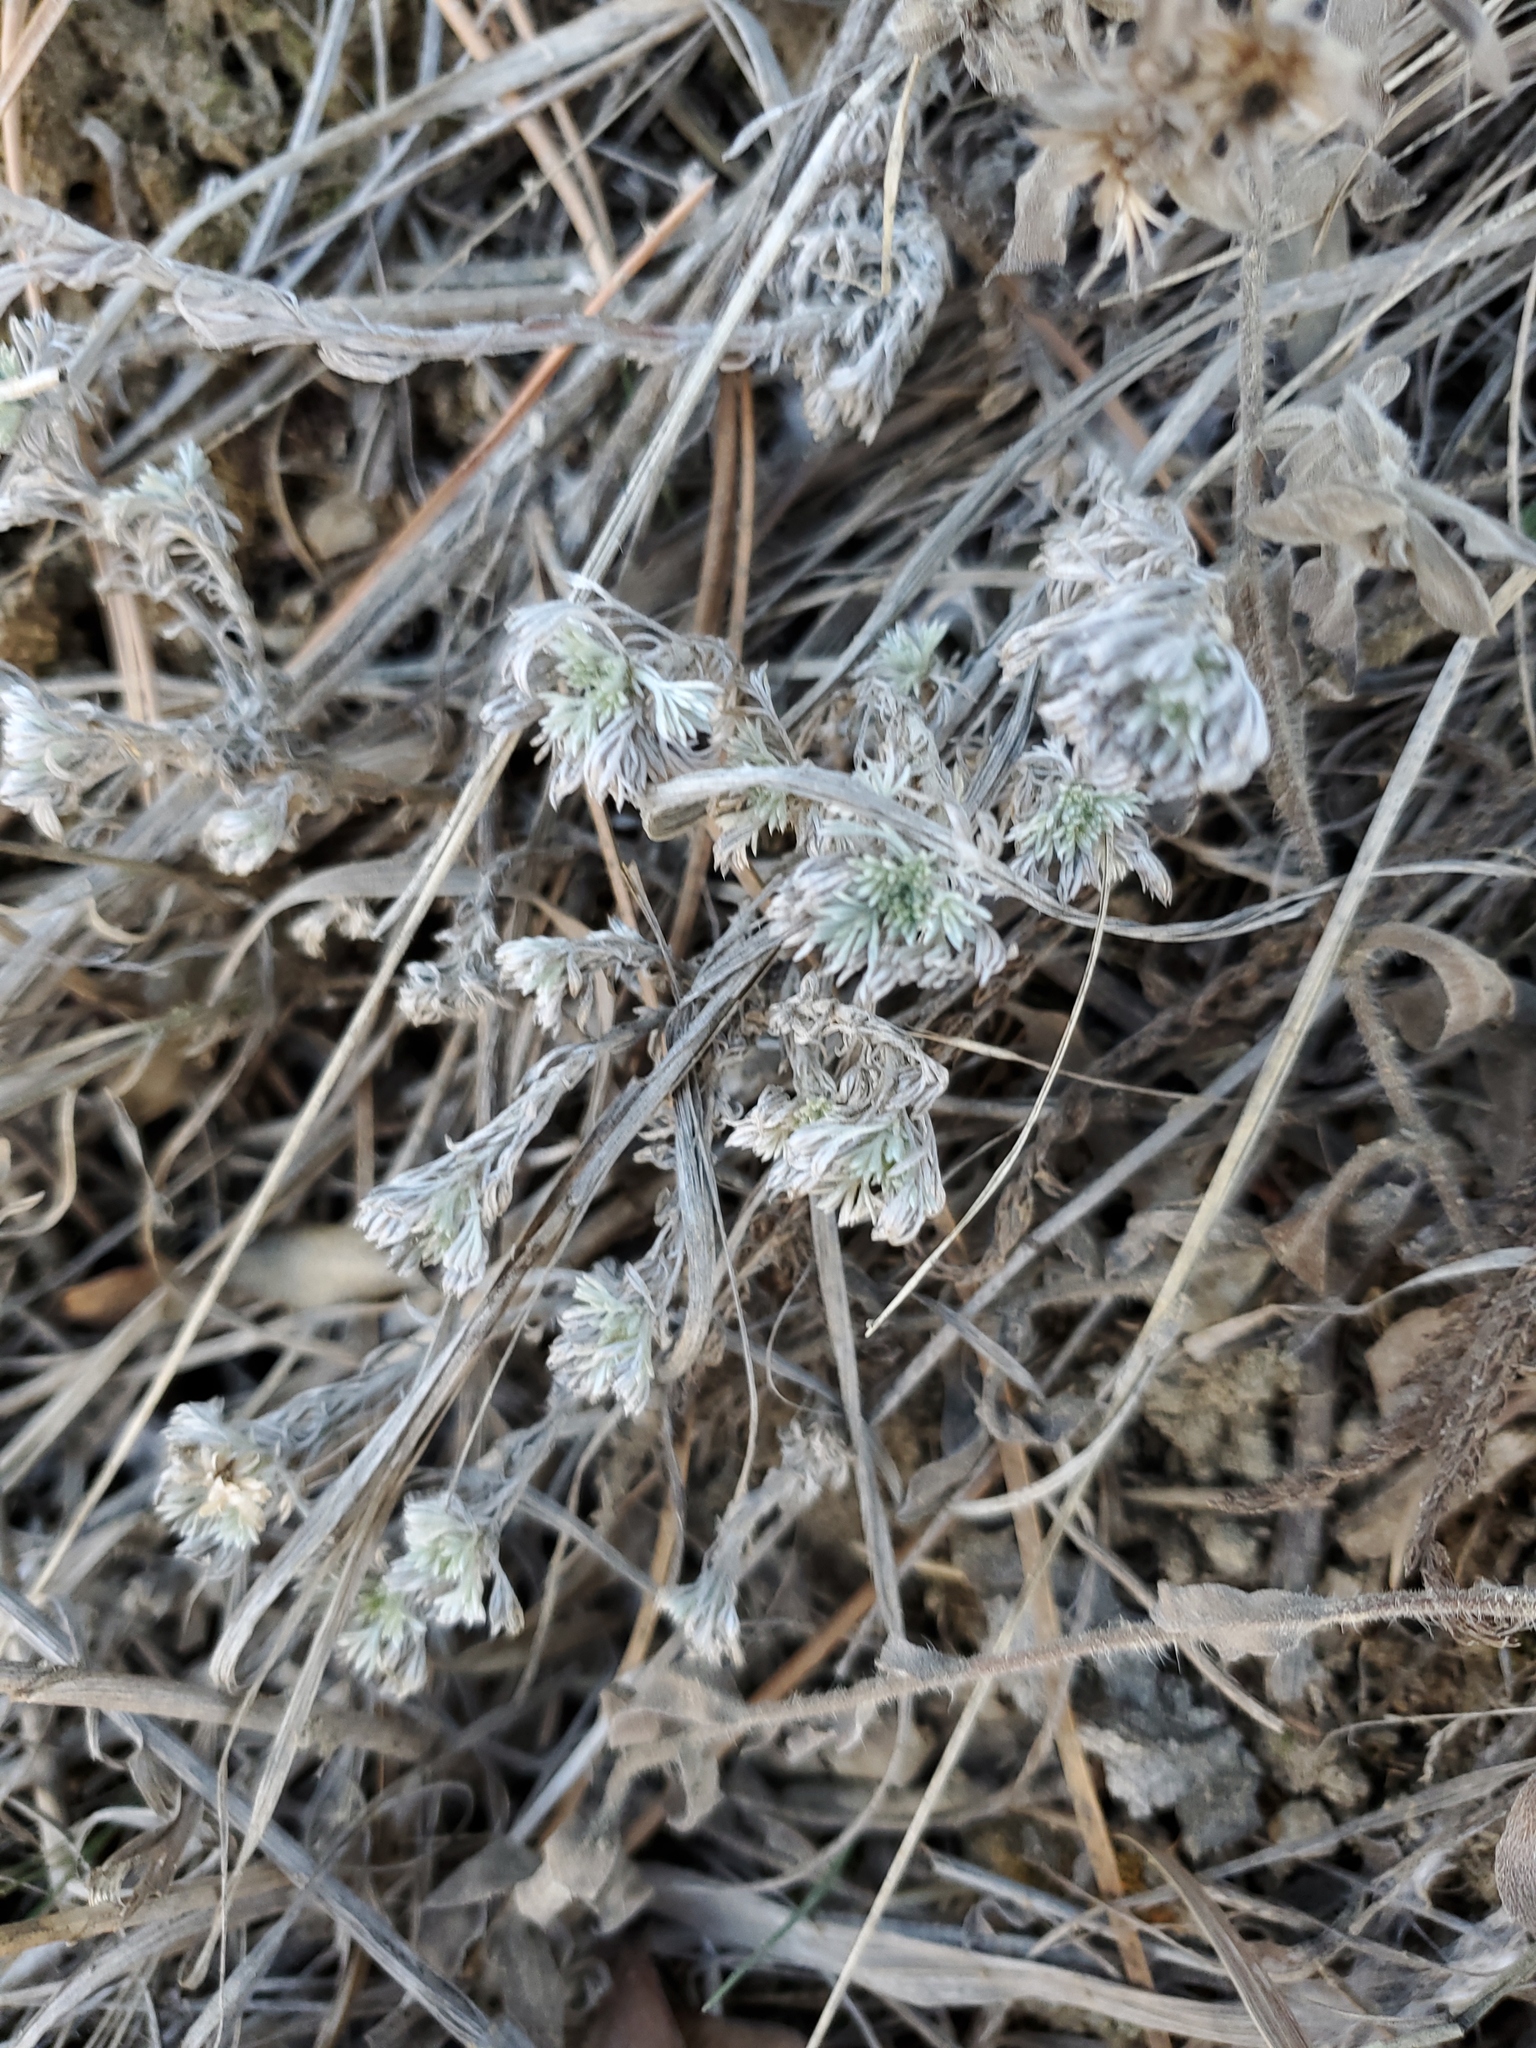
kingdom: Plantae
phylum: Tracheophyta
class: Magnoliopsida
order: Asterales
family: Asteraceae
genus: Artemisia
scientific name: Artemisia frigida
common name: Prairie sagewort
